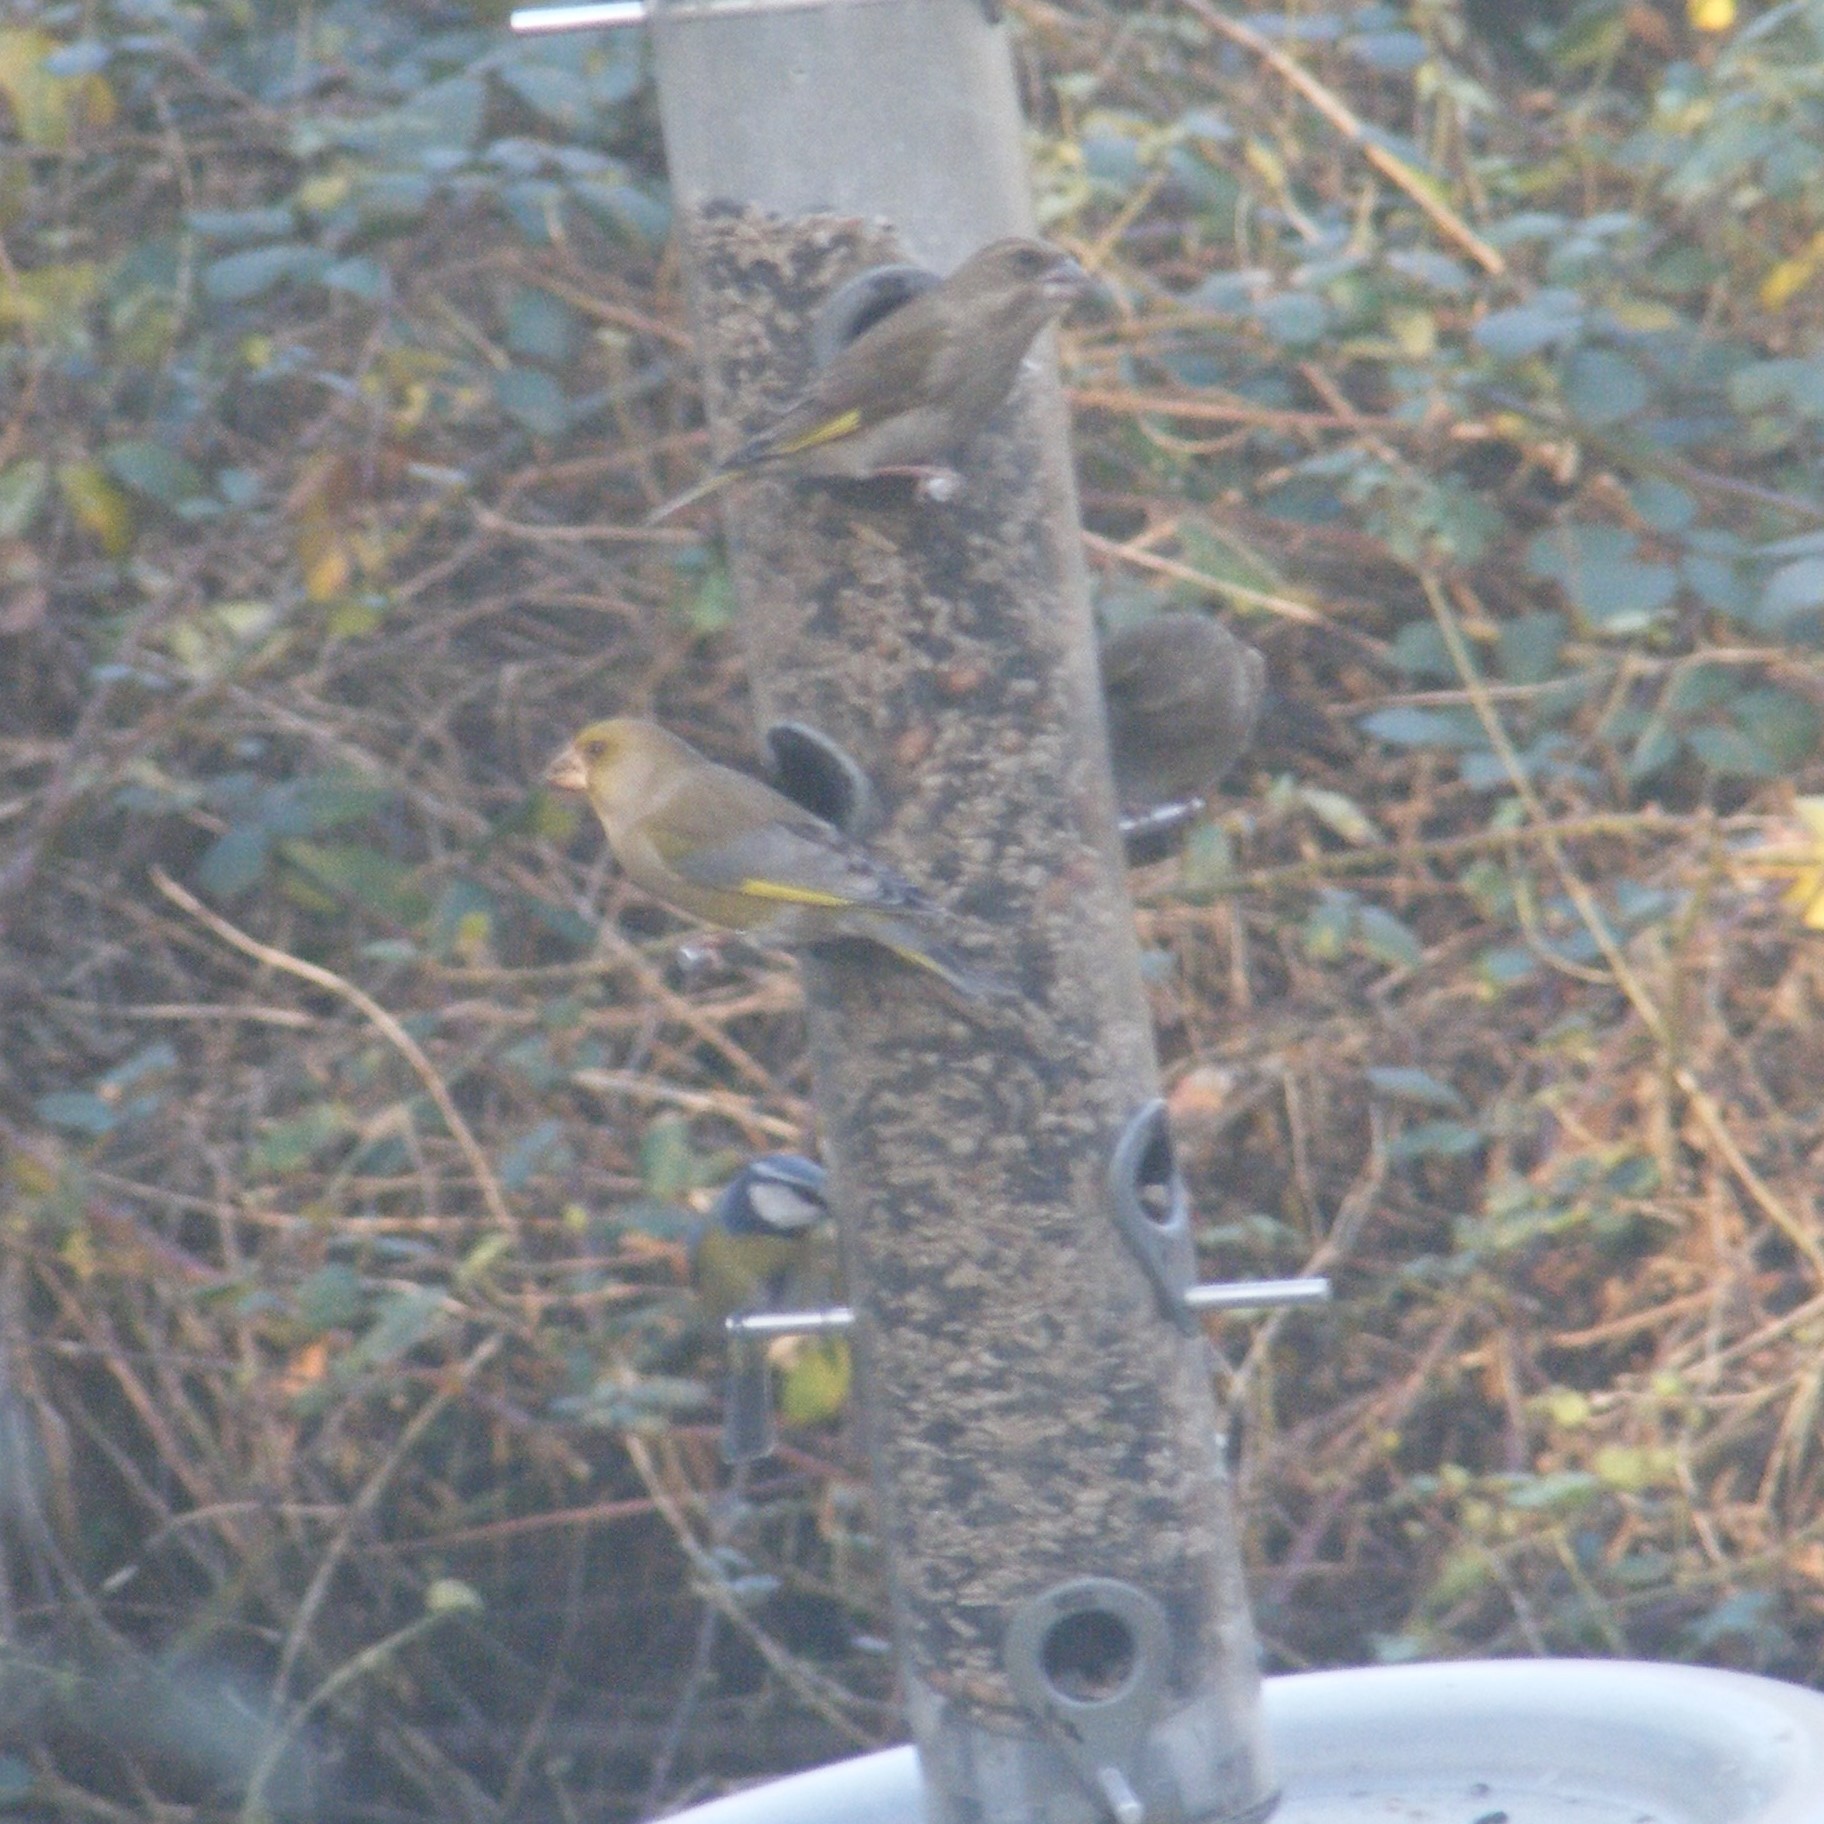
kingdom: Plantae
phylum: Tracheophyta
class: Liliopsida
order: Poales
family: Poaceae
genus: Chloris
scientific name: Chloris chloris
